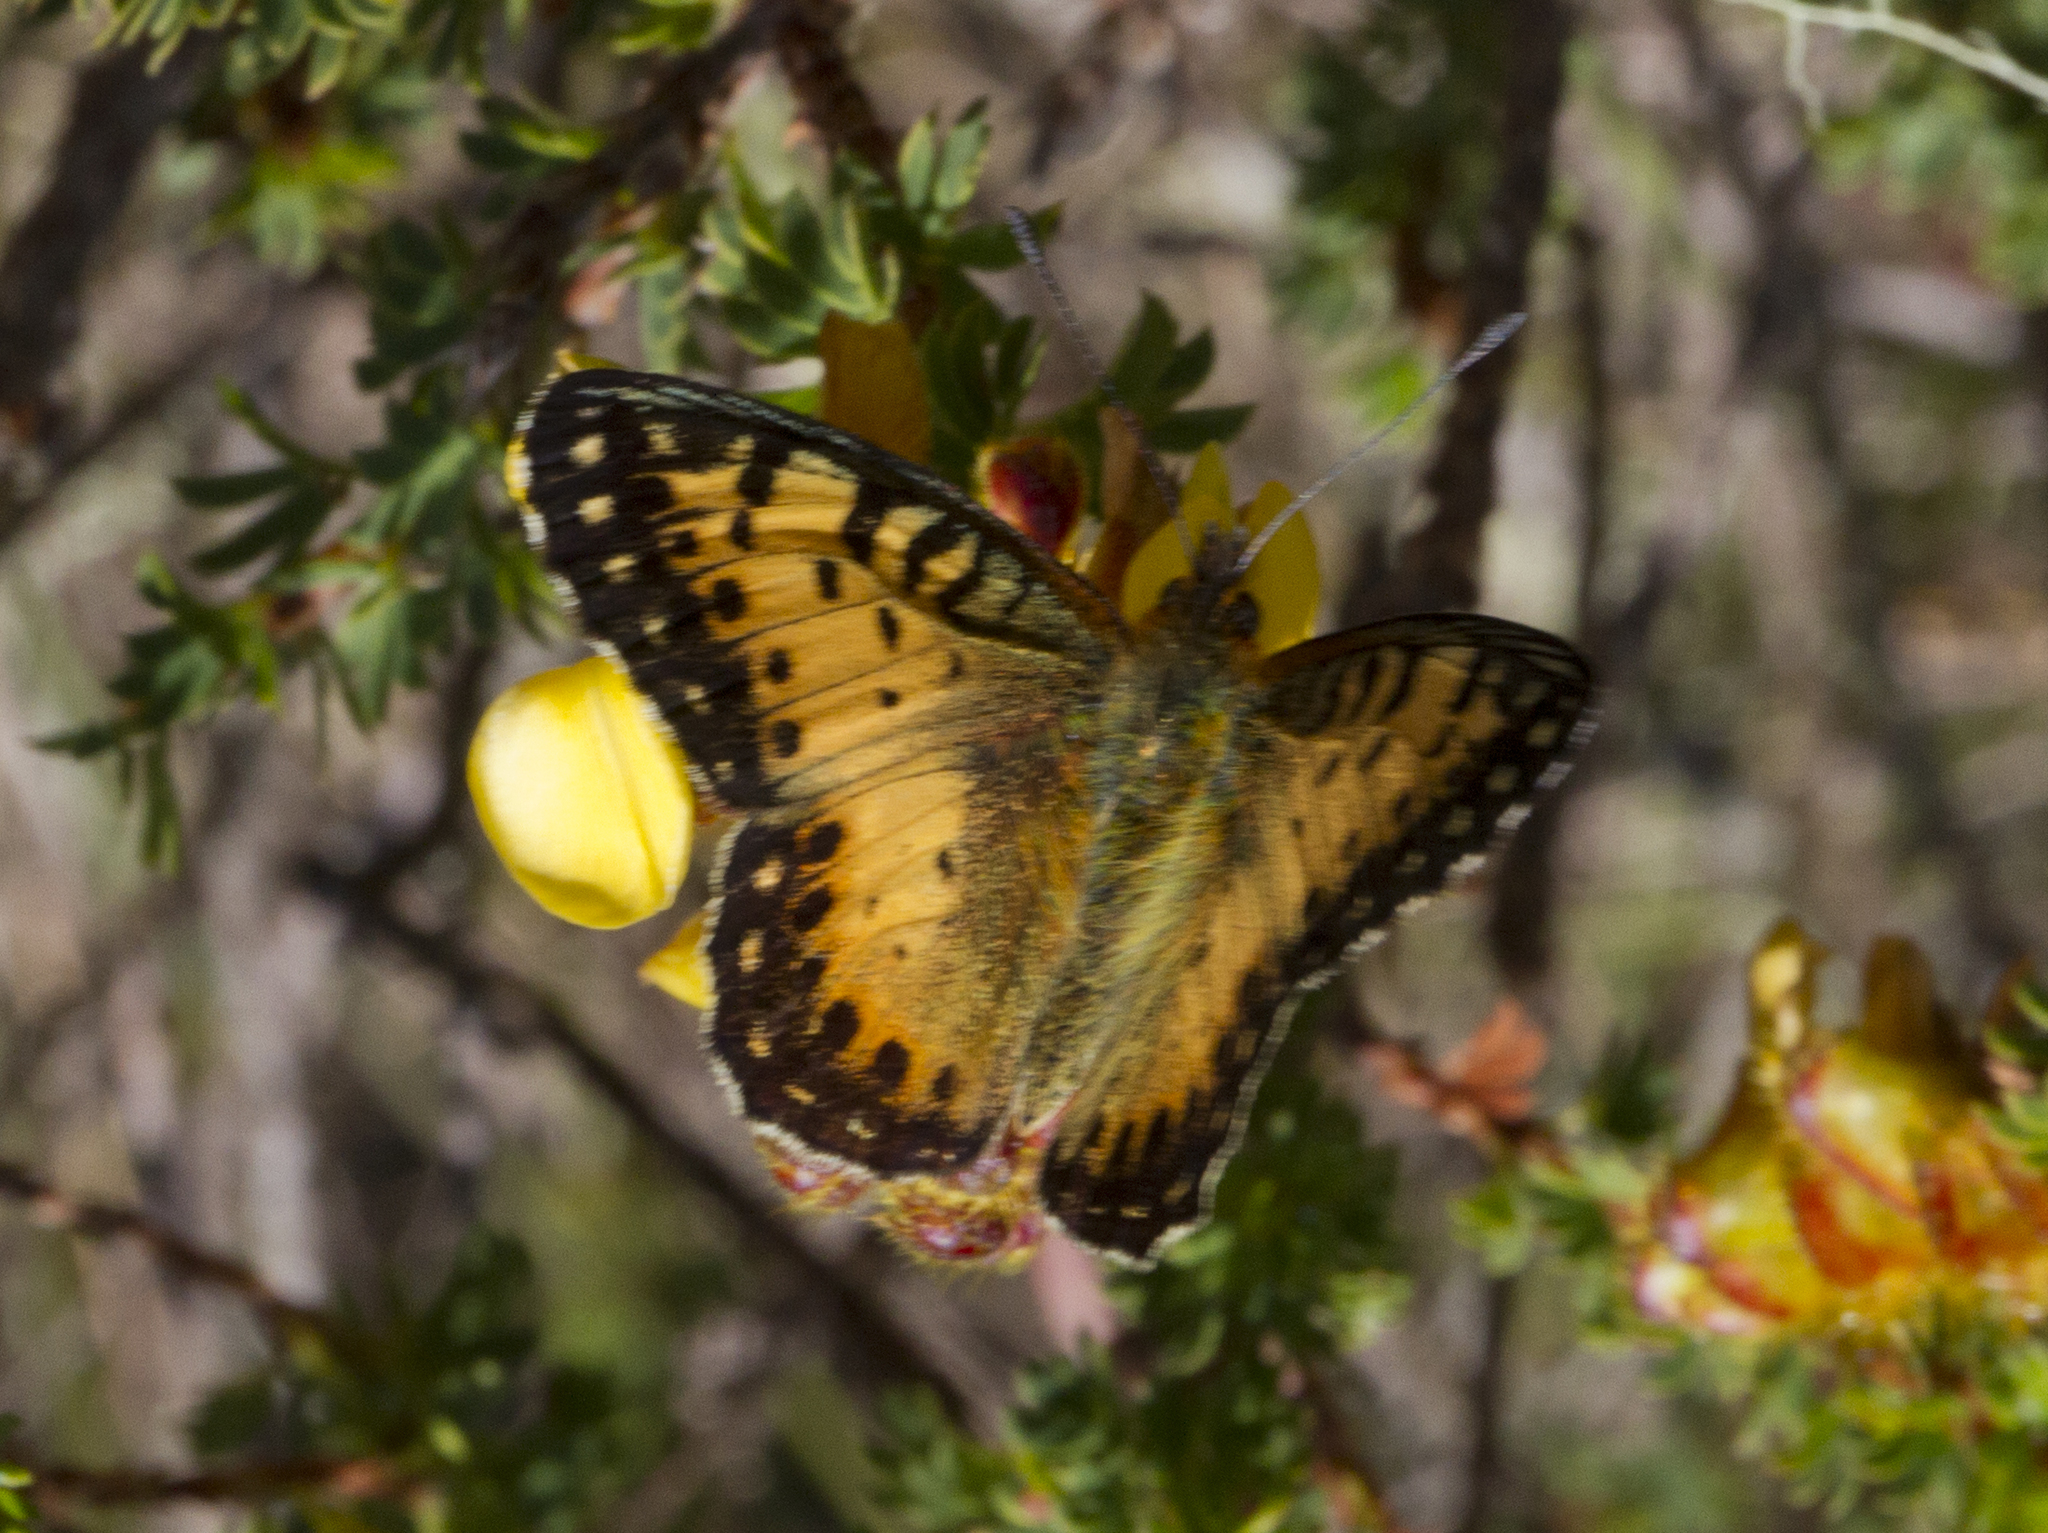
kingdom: Animalia
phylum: Arthropoda
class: Insecta
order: Lepidoptera
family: Nymphalidae
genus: Issoria
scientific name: Issoria hanningtoni
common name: Hannington's fritillary
